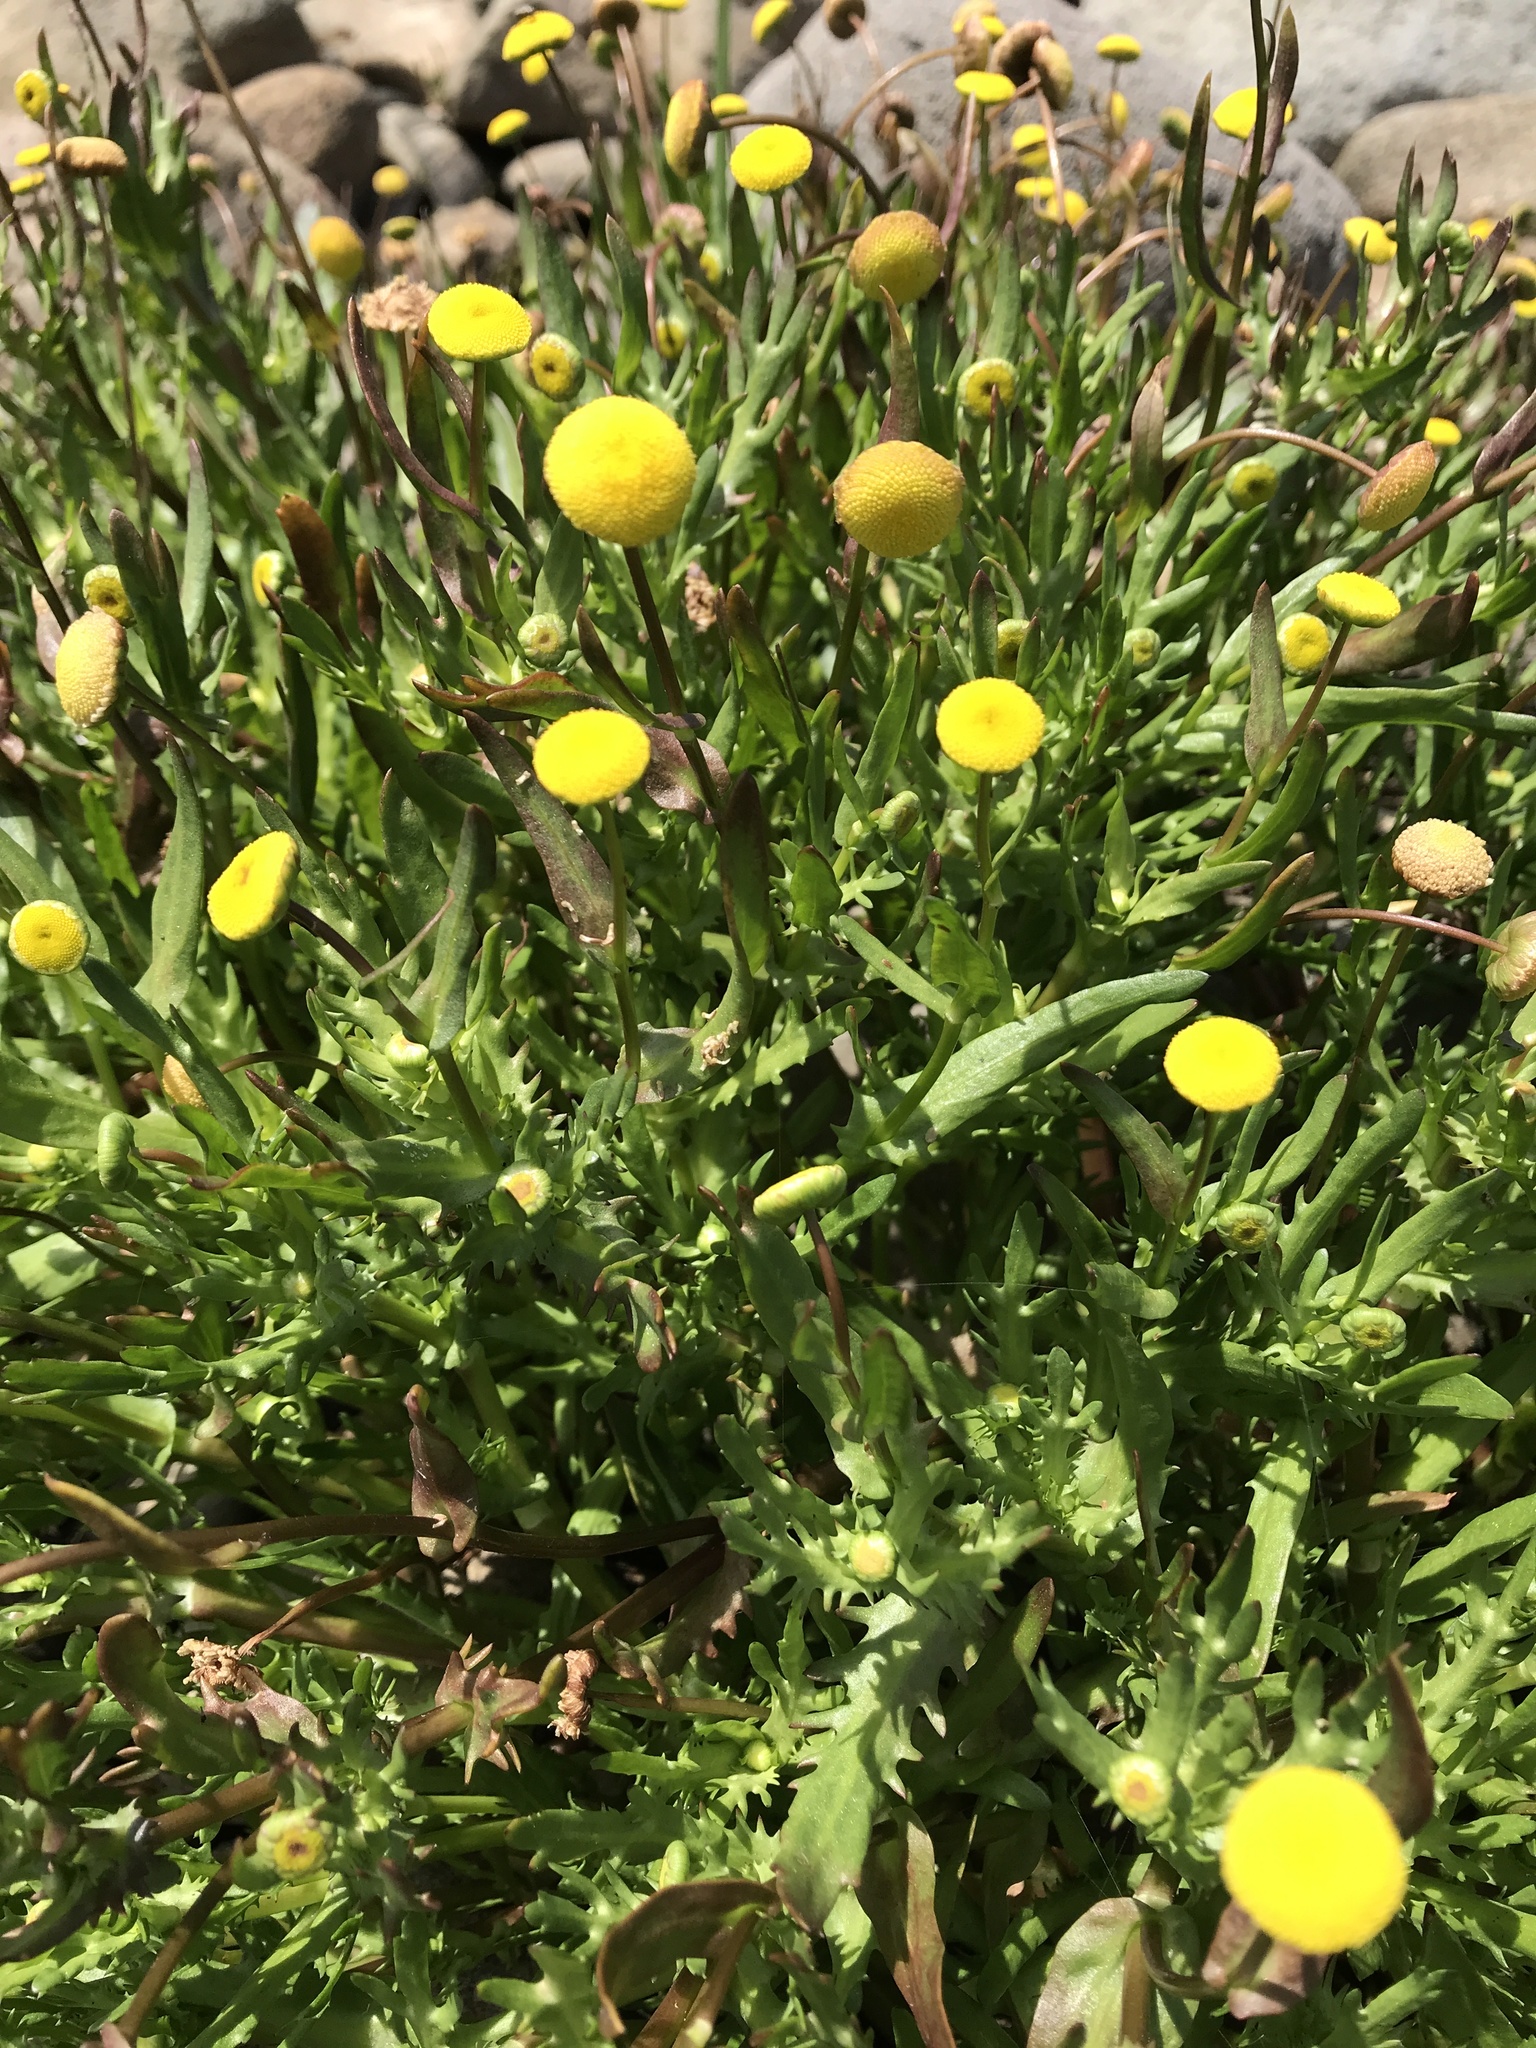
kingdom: Plantae
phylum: Tracheophyta
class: Magnoliopsida
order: Asterales
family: Asteraceae
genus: Cotula
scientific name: Cotula coronopifolia
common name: Buttonweed
